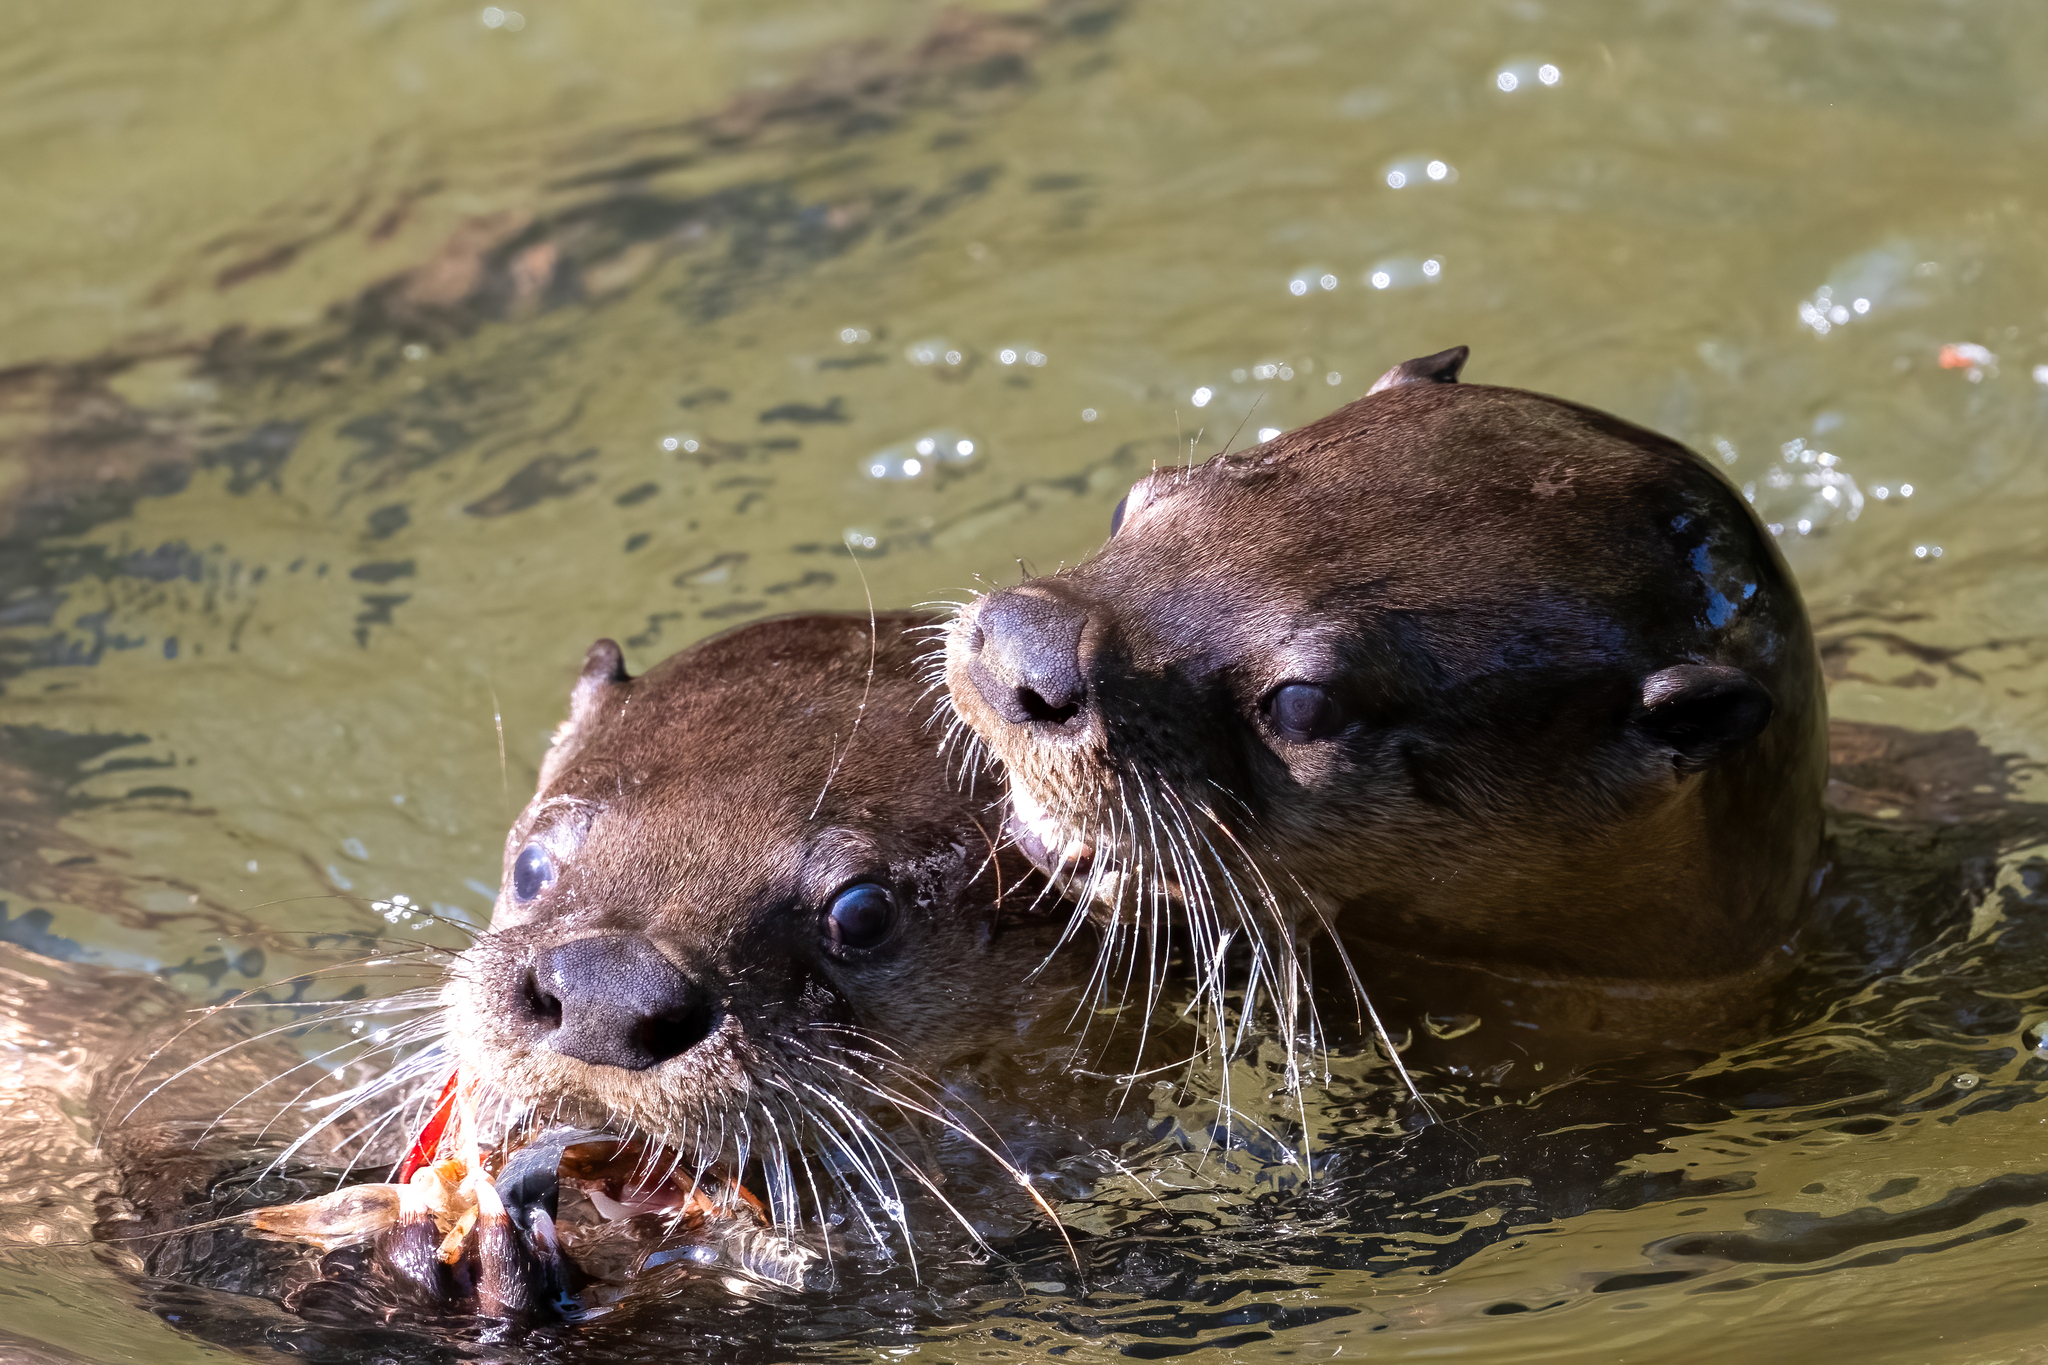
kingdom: Animalia
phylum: Chordata
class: Mammalia
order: Carnivora
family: Mustelidae
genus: Lontra
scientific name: Lontra canadensis
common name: North american river otter
